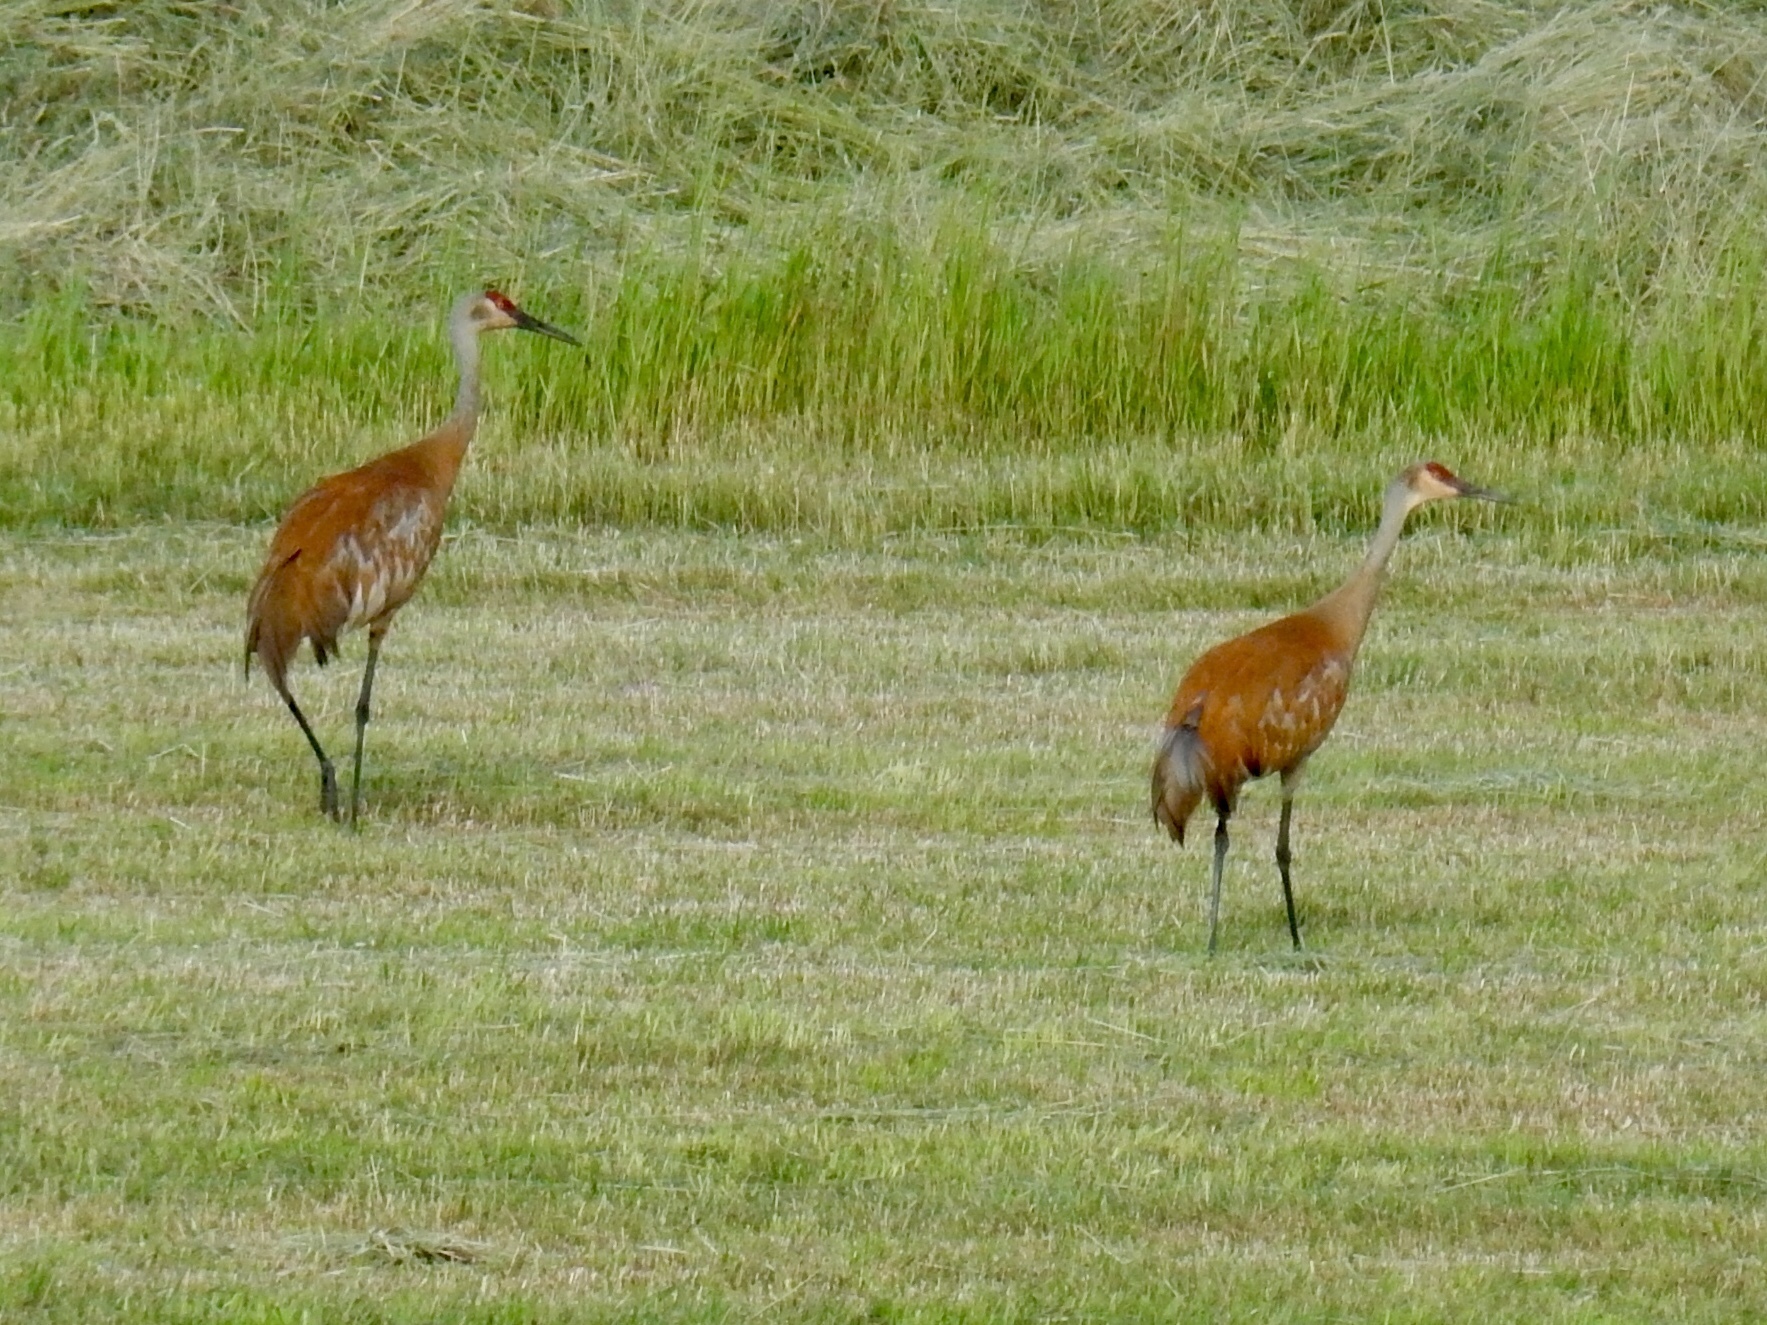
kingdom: Animalia
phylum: Chordata
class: Aves
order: Gruiformes
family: Gruidae
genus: Grus
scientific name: Grus canadensis
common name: Sandhill crane
